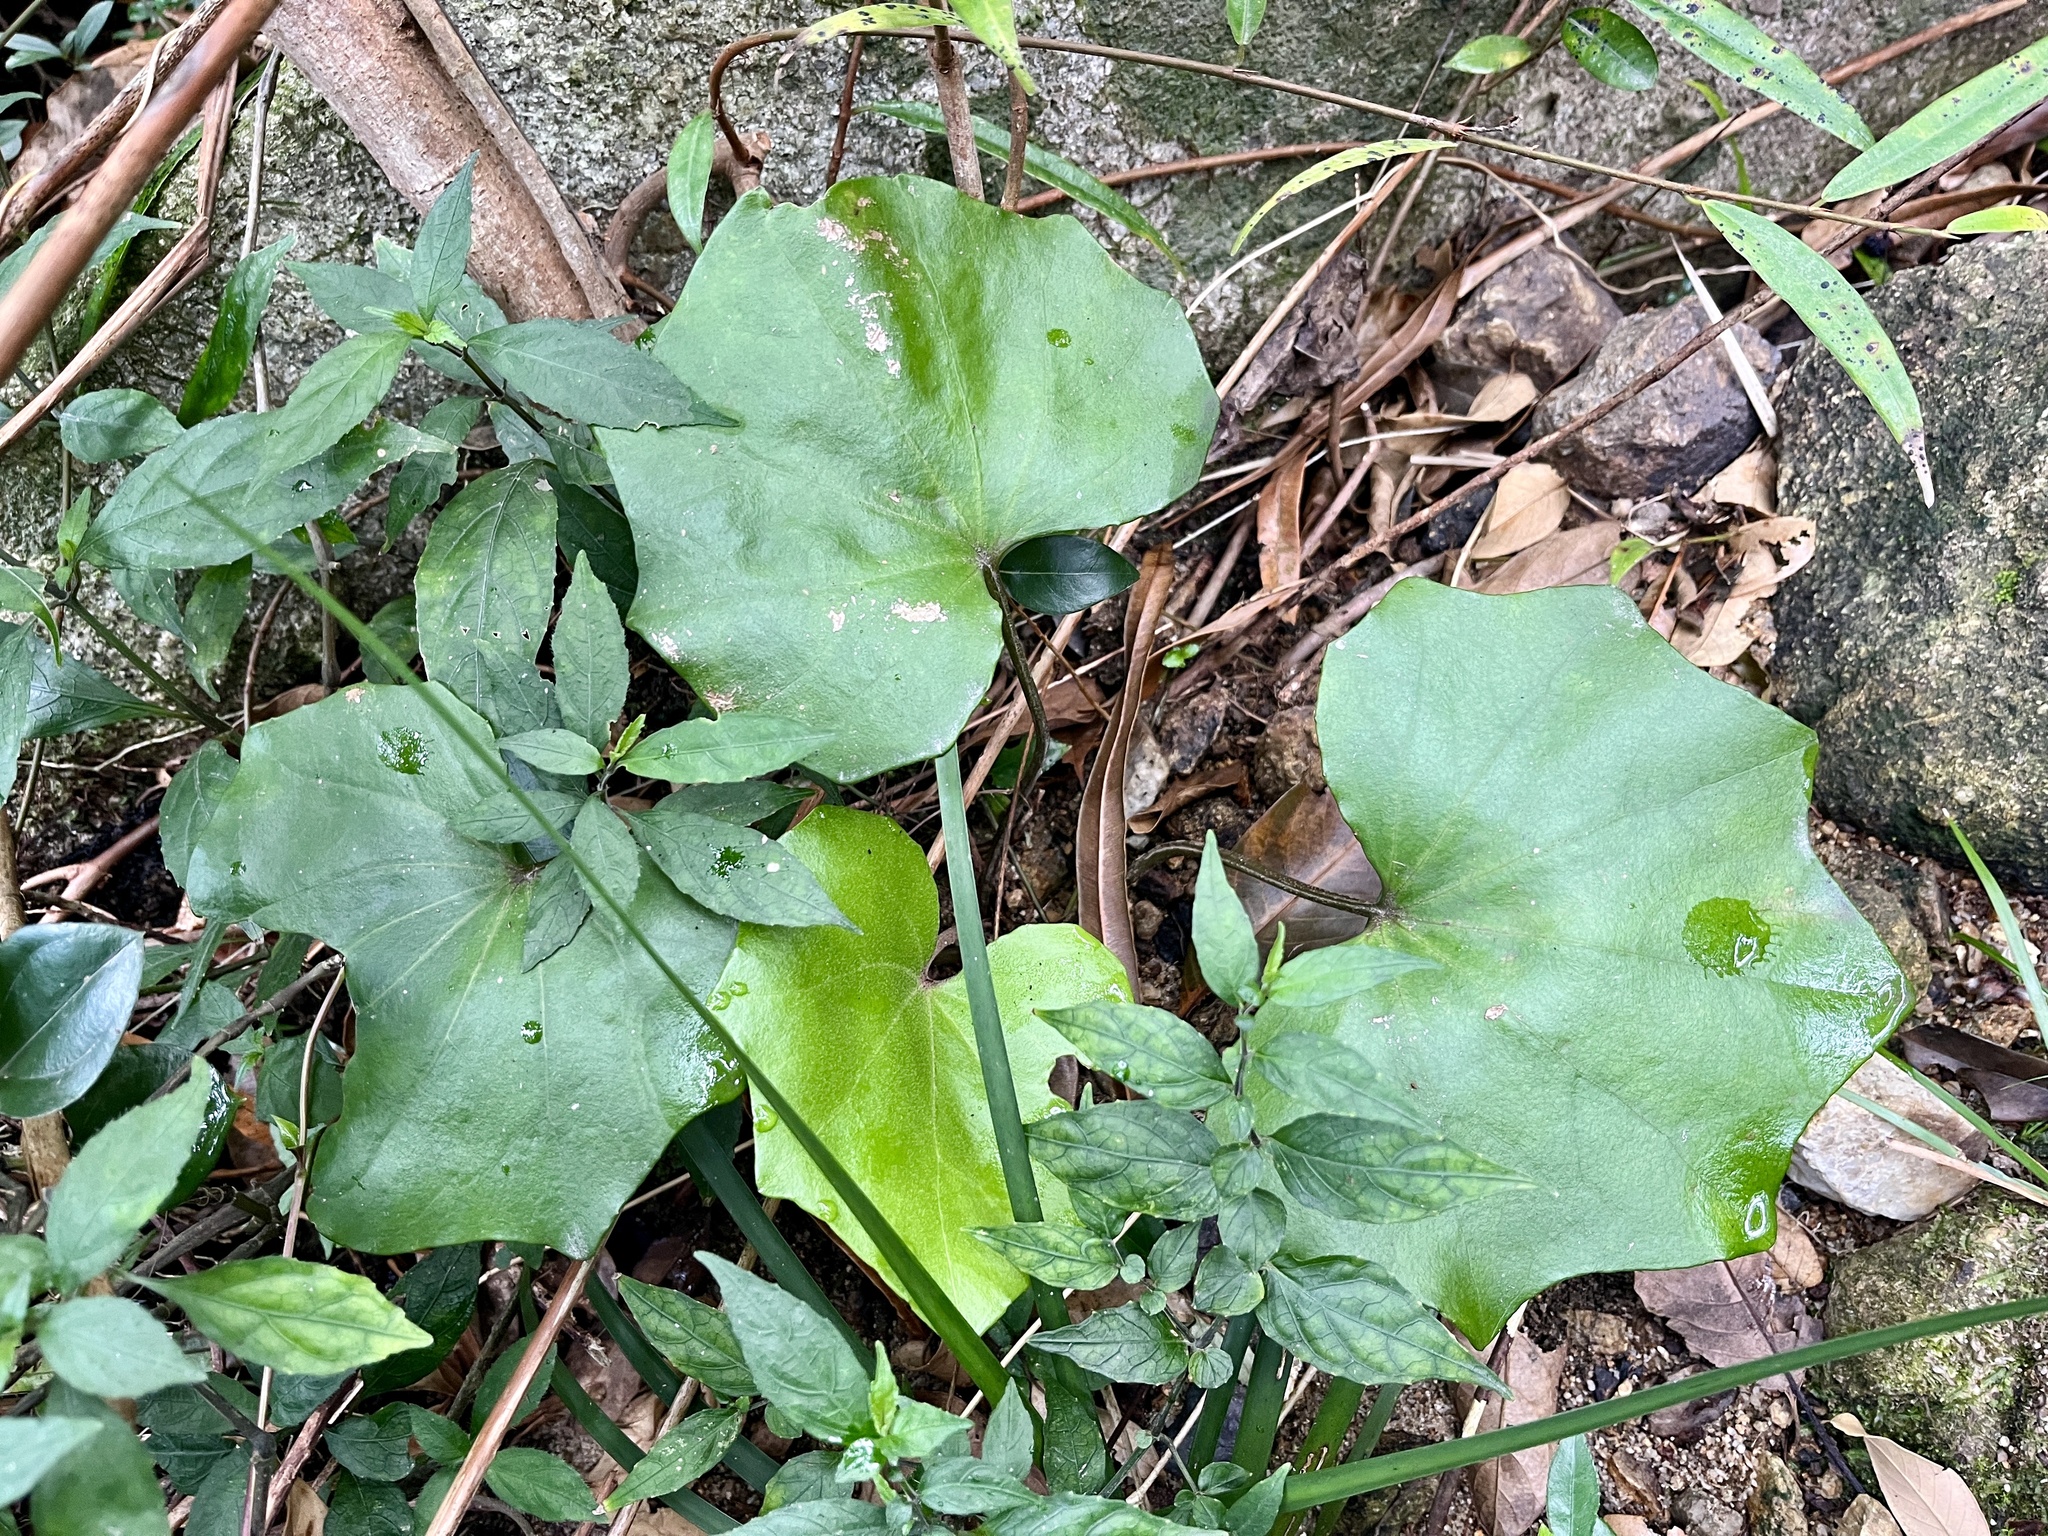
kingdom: Plantae
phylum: Tracheophyta
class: Magnoliopsida
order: Asterales
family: Asteraceae
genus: Farfugium
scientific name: Farfugium japonicum
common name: Leopardplant
